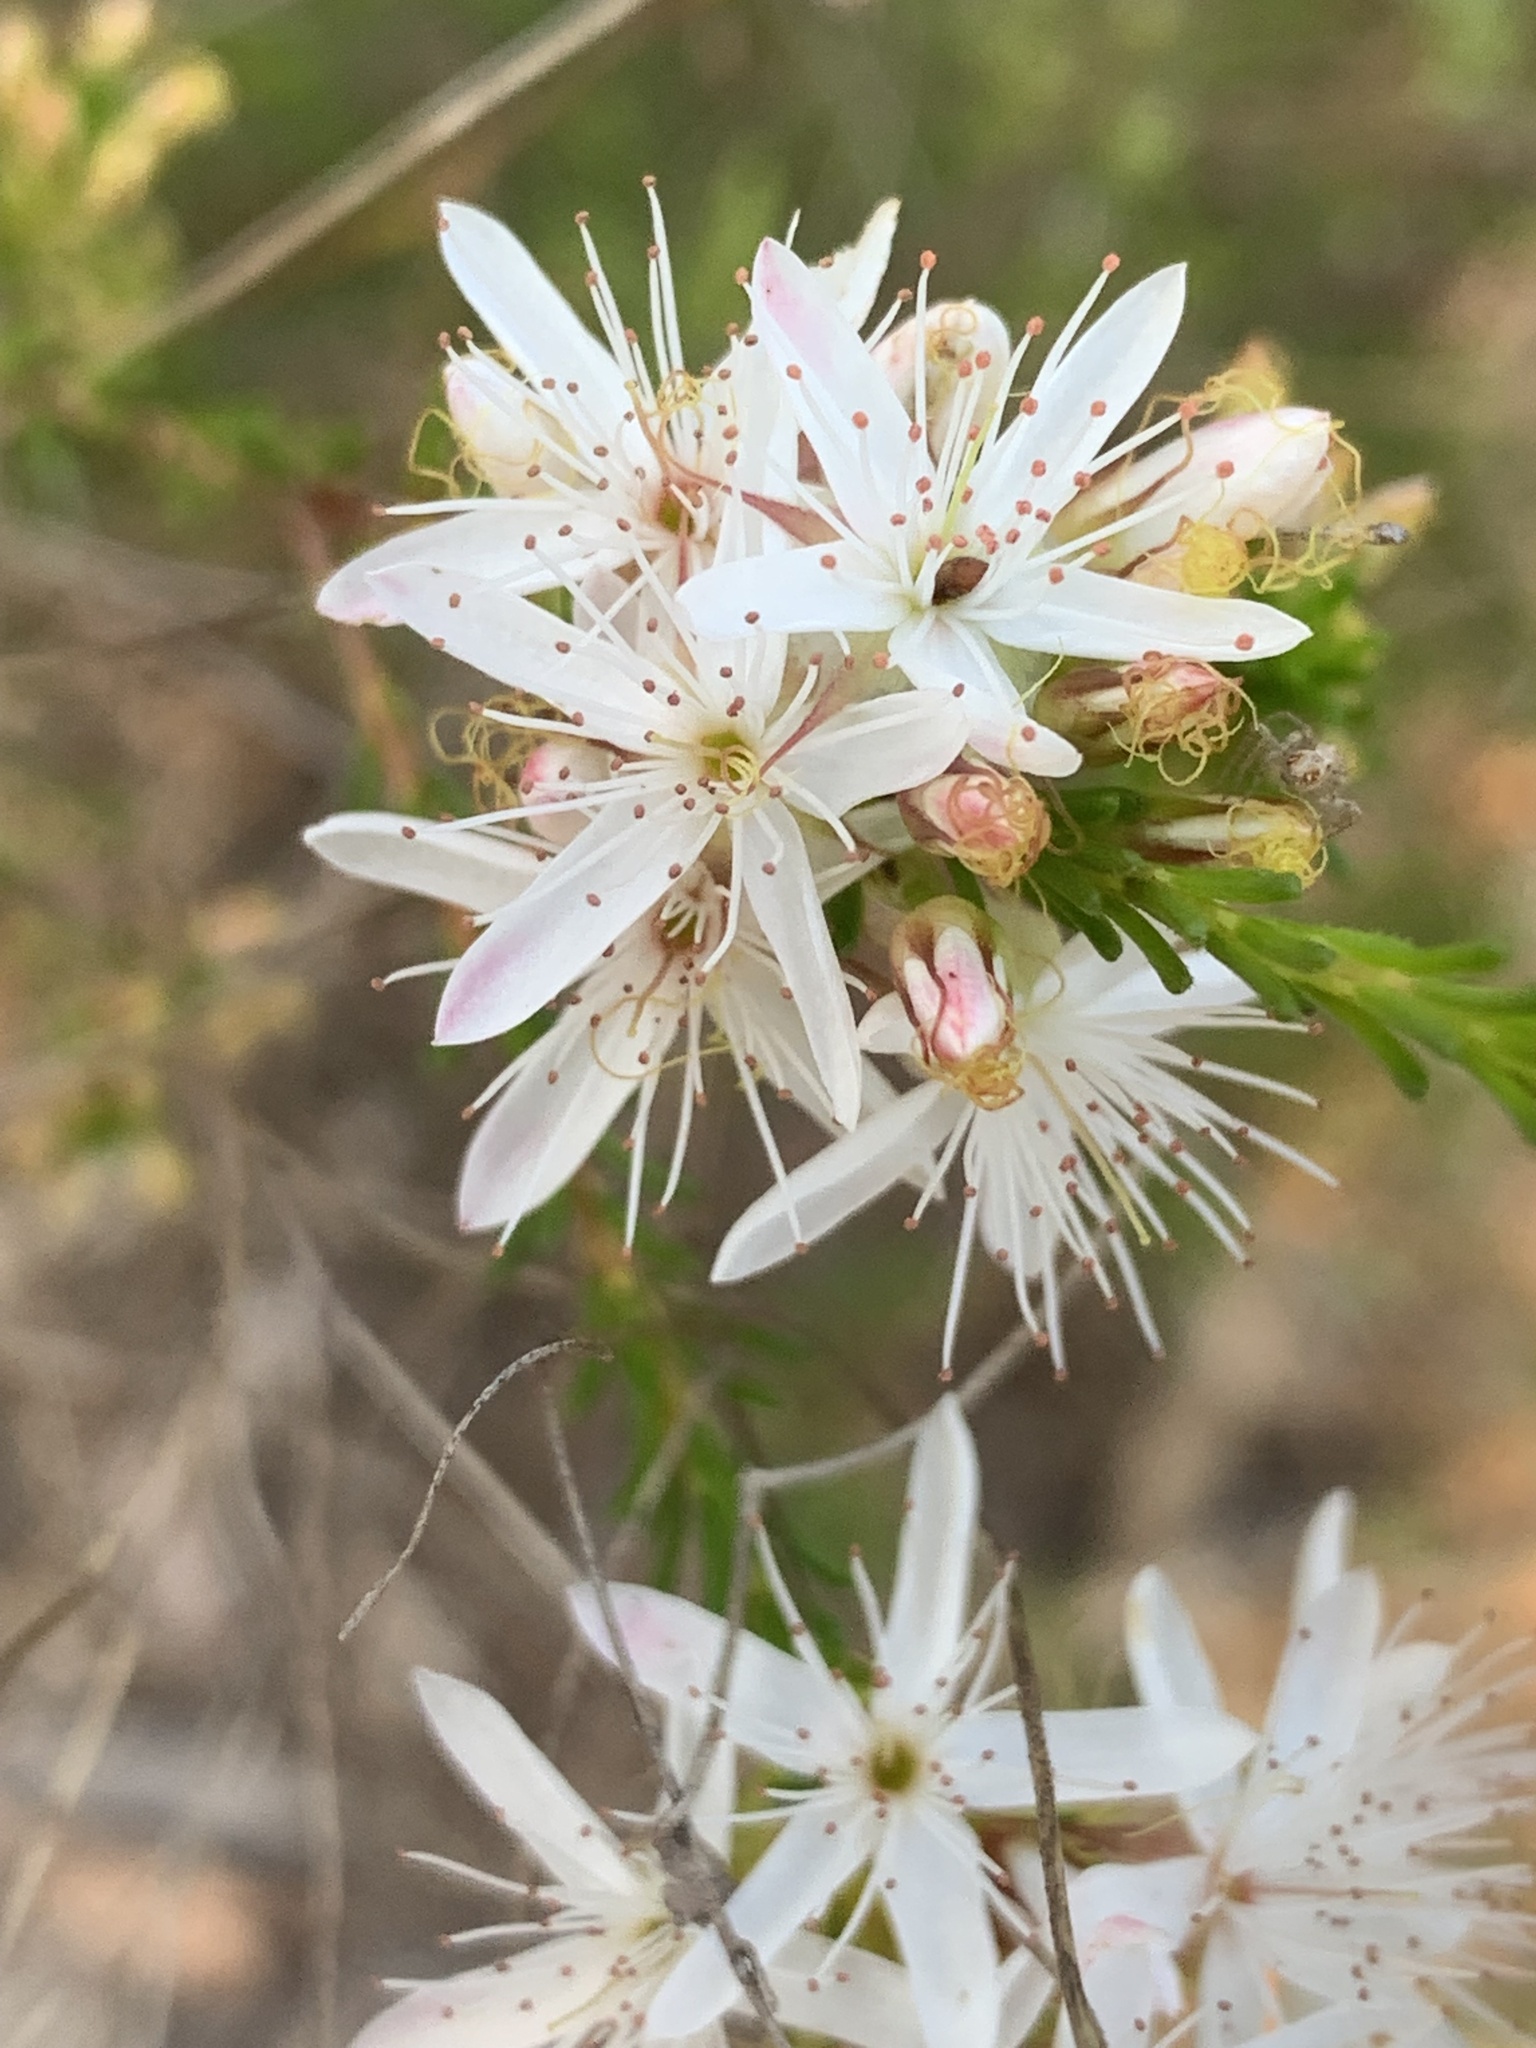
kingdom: Plantae
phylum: Tracheophyta
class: Magnoliopsida
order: Myrtales
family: Myrtaceae
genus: Calytrix
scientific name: Calytrix tetragona
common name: Common fringe myrtle
